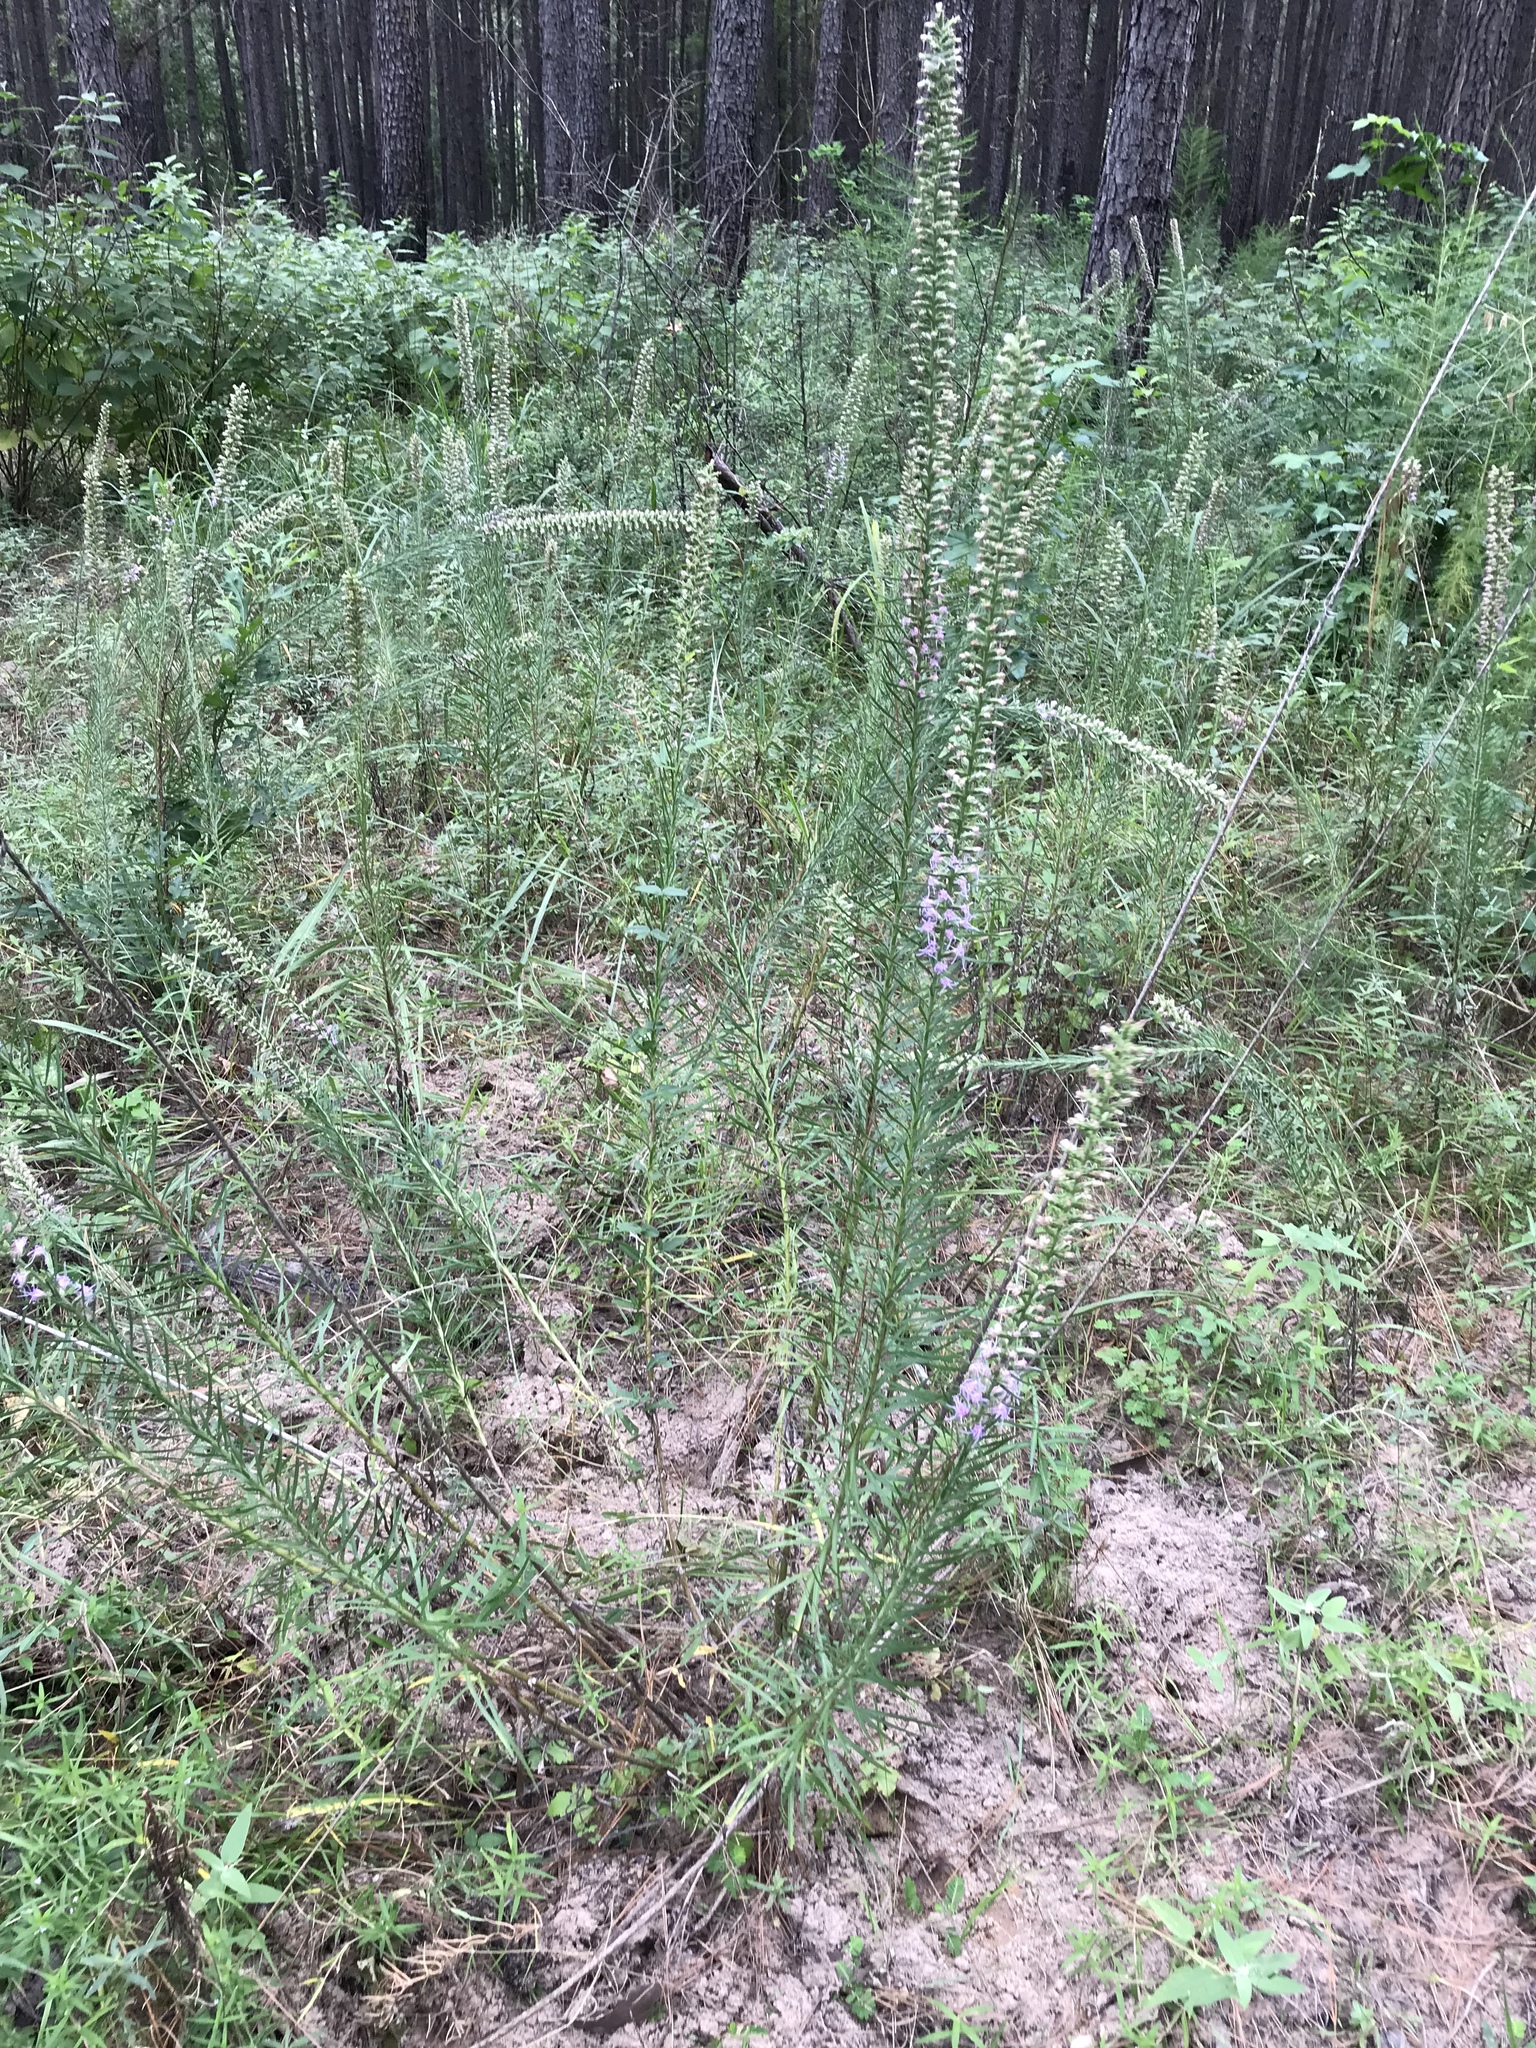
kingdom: Plantae
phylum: Tracheophyta
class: Magnoliopsida
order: Asterales
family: Asteraceae
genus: Liatris
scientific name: Liatris pycnostachya
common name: Cattail gayfeather
